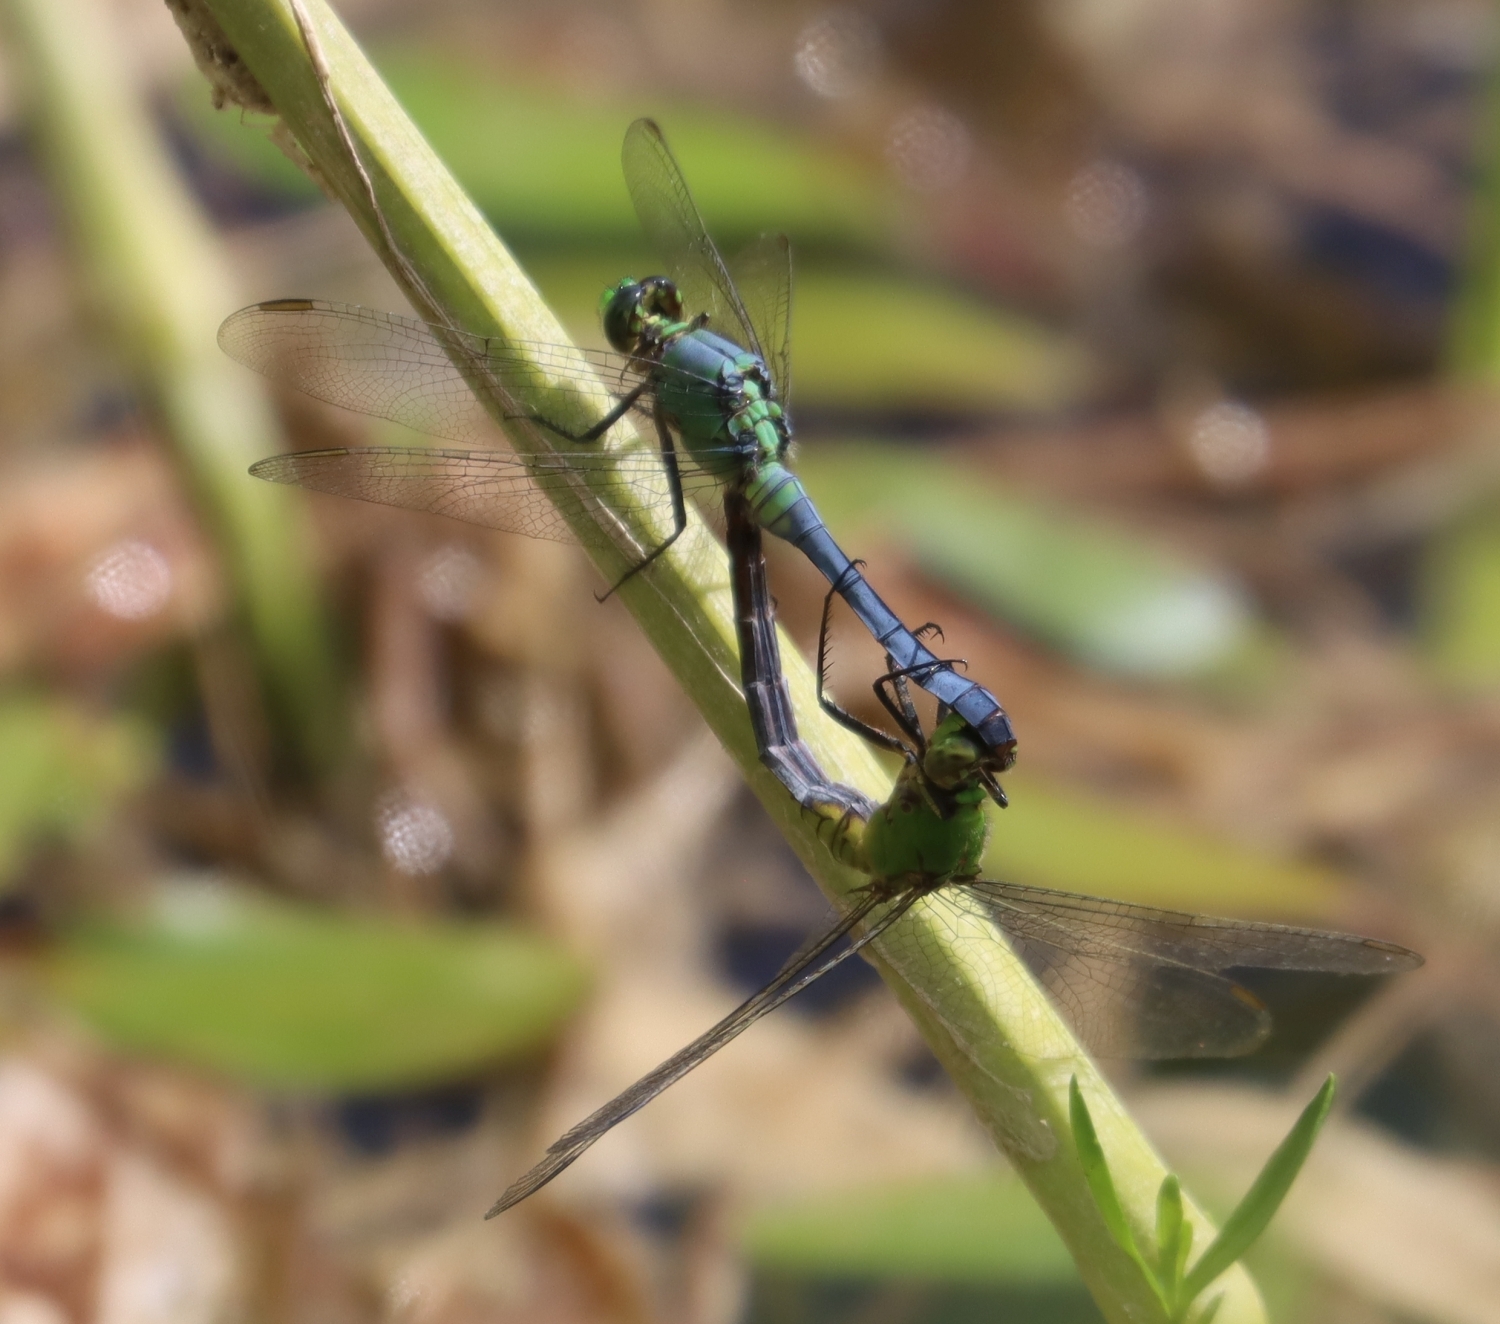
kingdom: Animalia
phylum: Arthropoda
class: Insecta
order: Odonata
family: Libellulidae
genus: Erythemis
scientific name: Erythemis simplicicollis
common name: Eastern pondhawk
